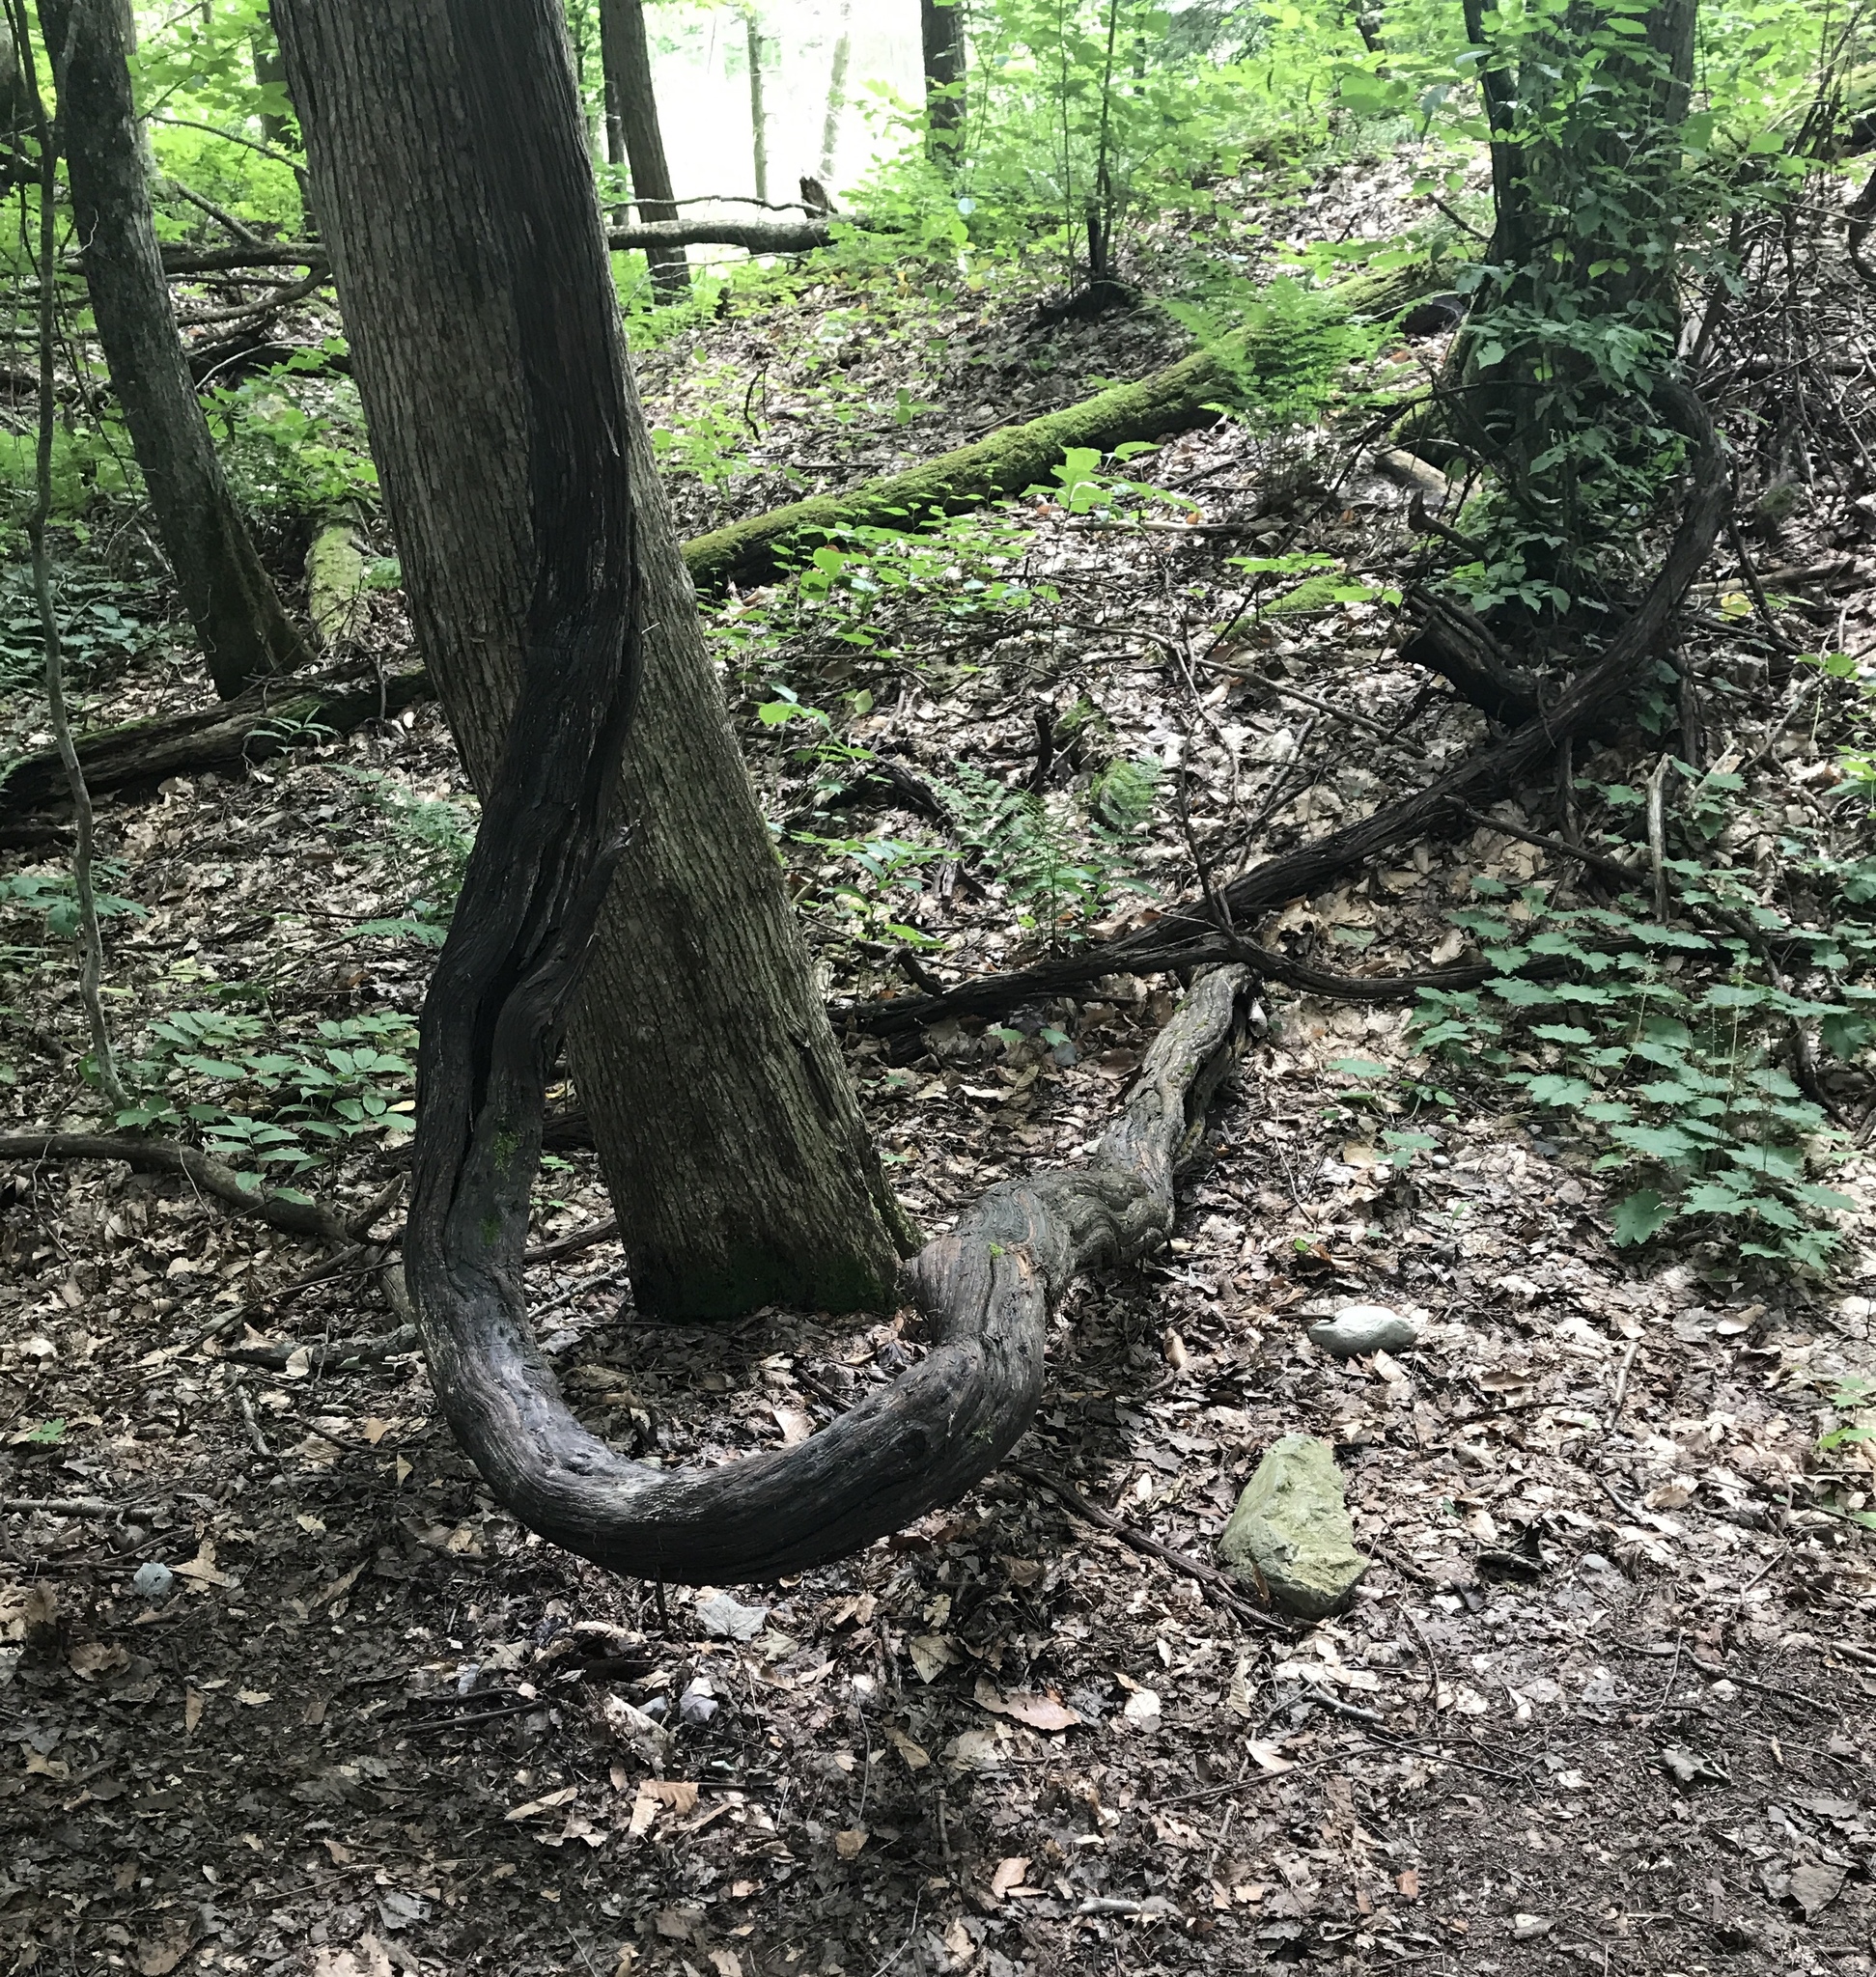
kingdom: Plantae
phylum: Tracheophyta
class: Magnoliopsida
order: Vitales
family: Vitaceae
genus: Vitis
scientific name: Vitis riparia
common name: Frost grape
